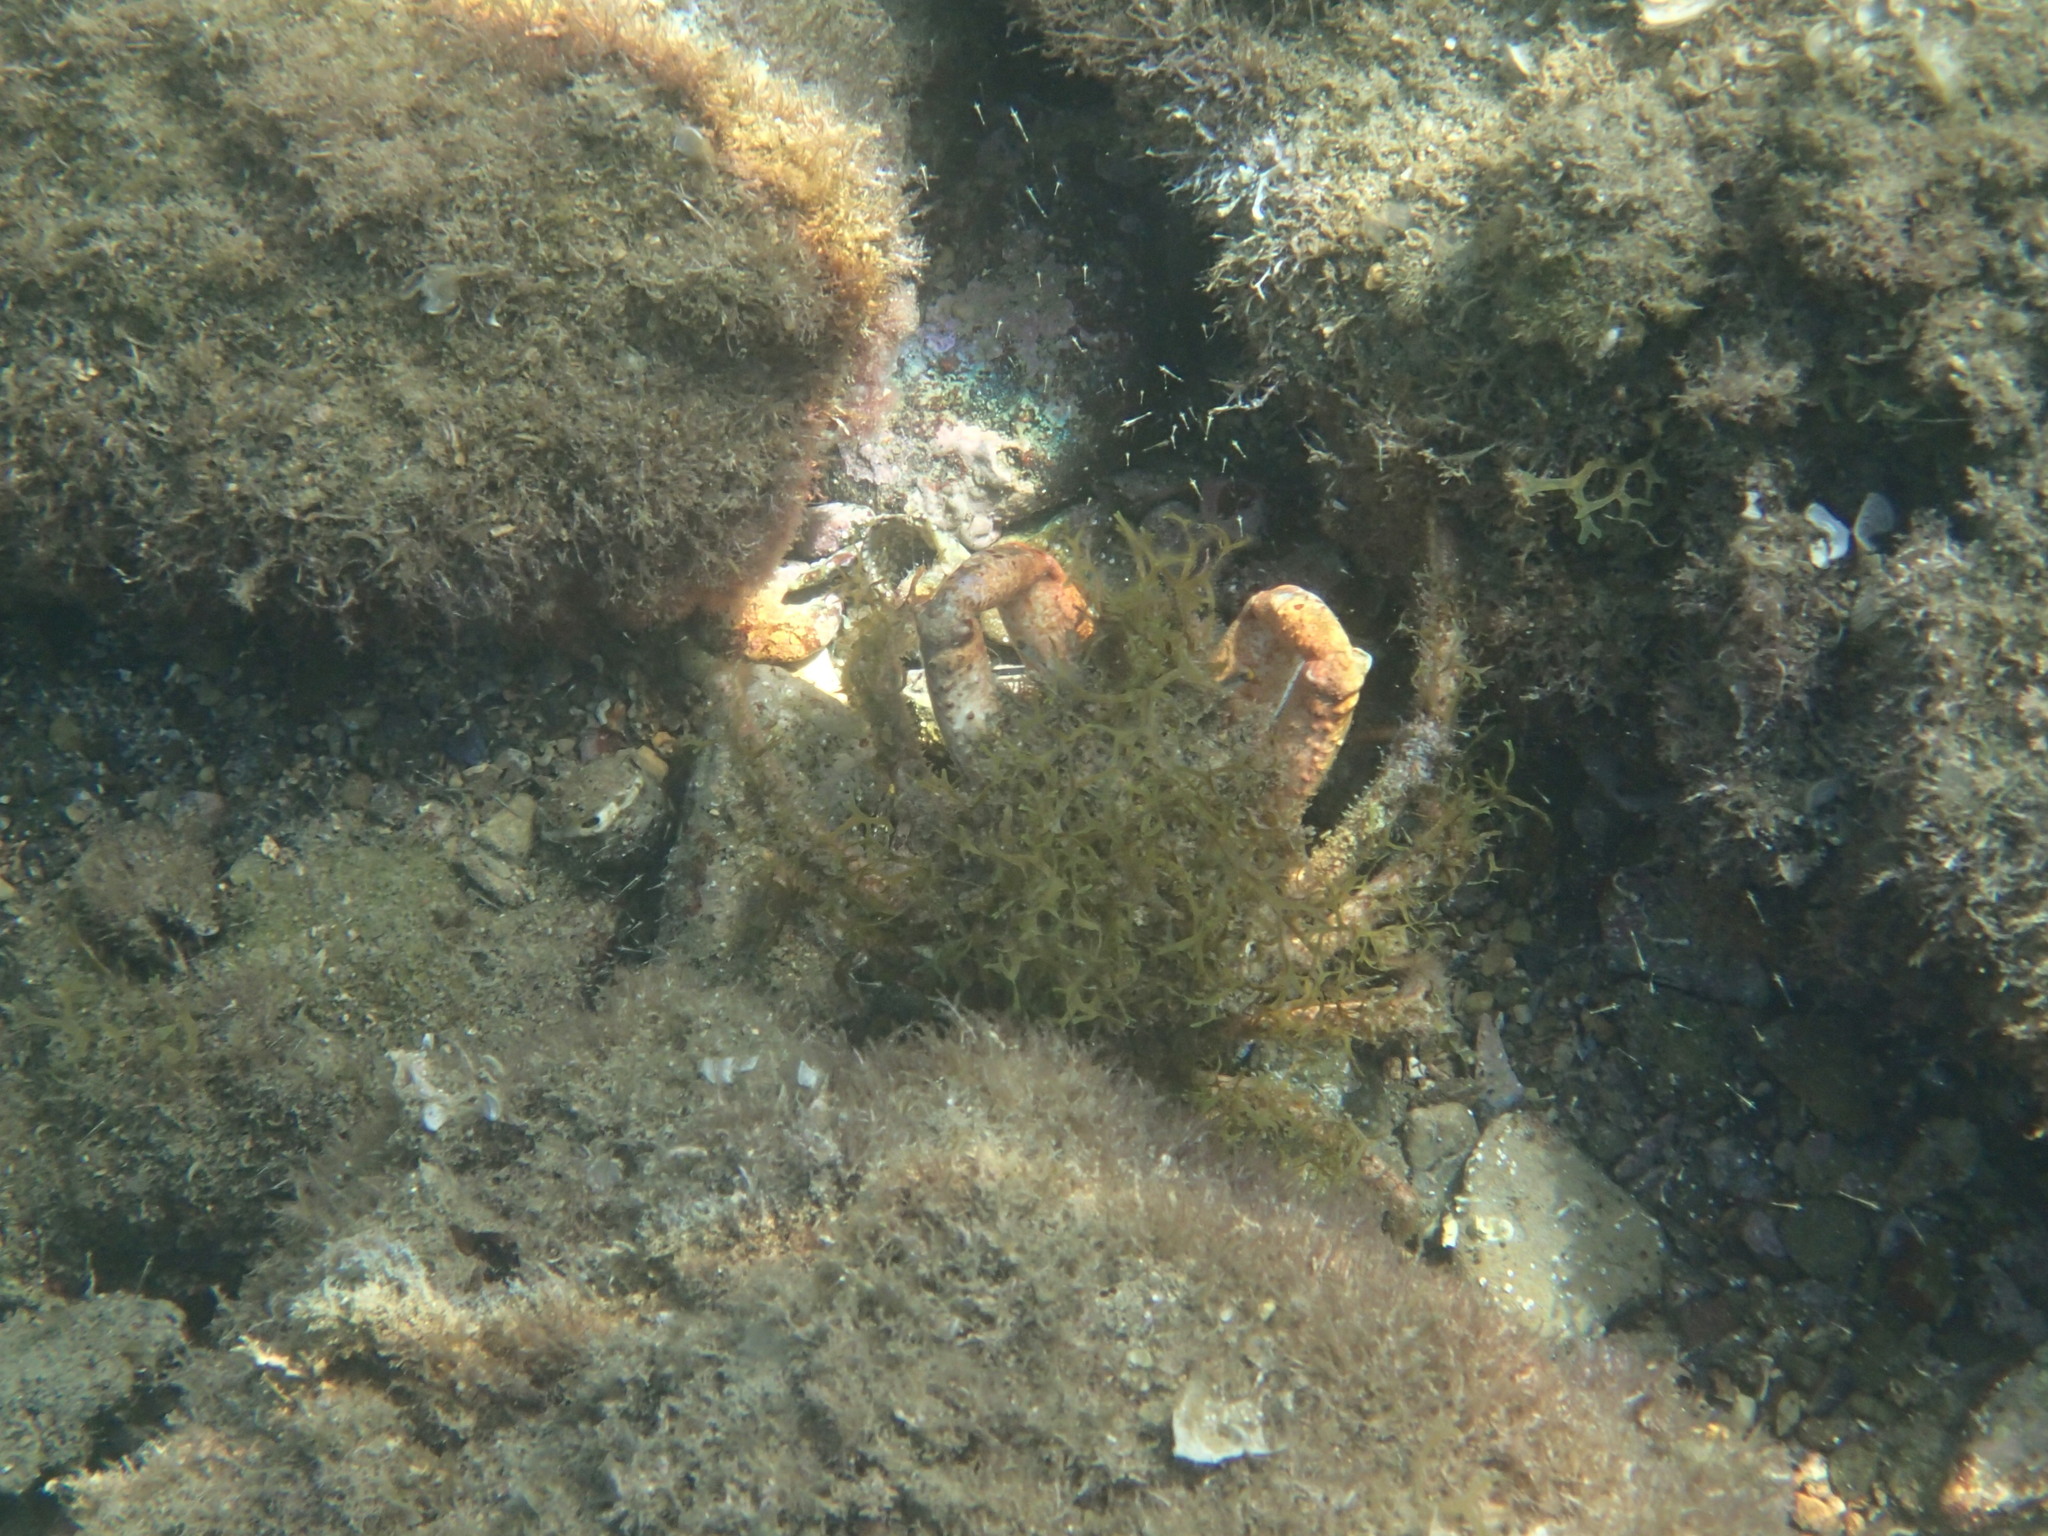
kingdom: Animalia
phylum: Arthropoda
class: Malacostraca
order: Decapoda
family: Majidae
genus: Maja
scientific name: Maja crispata
